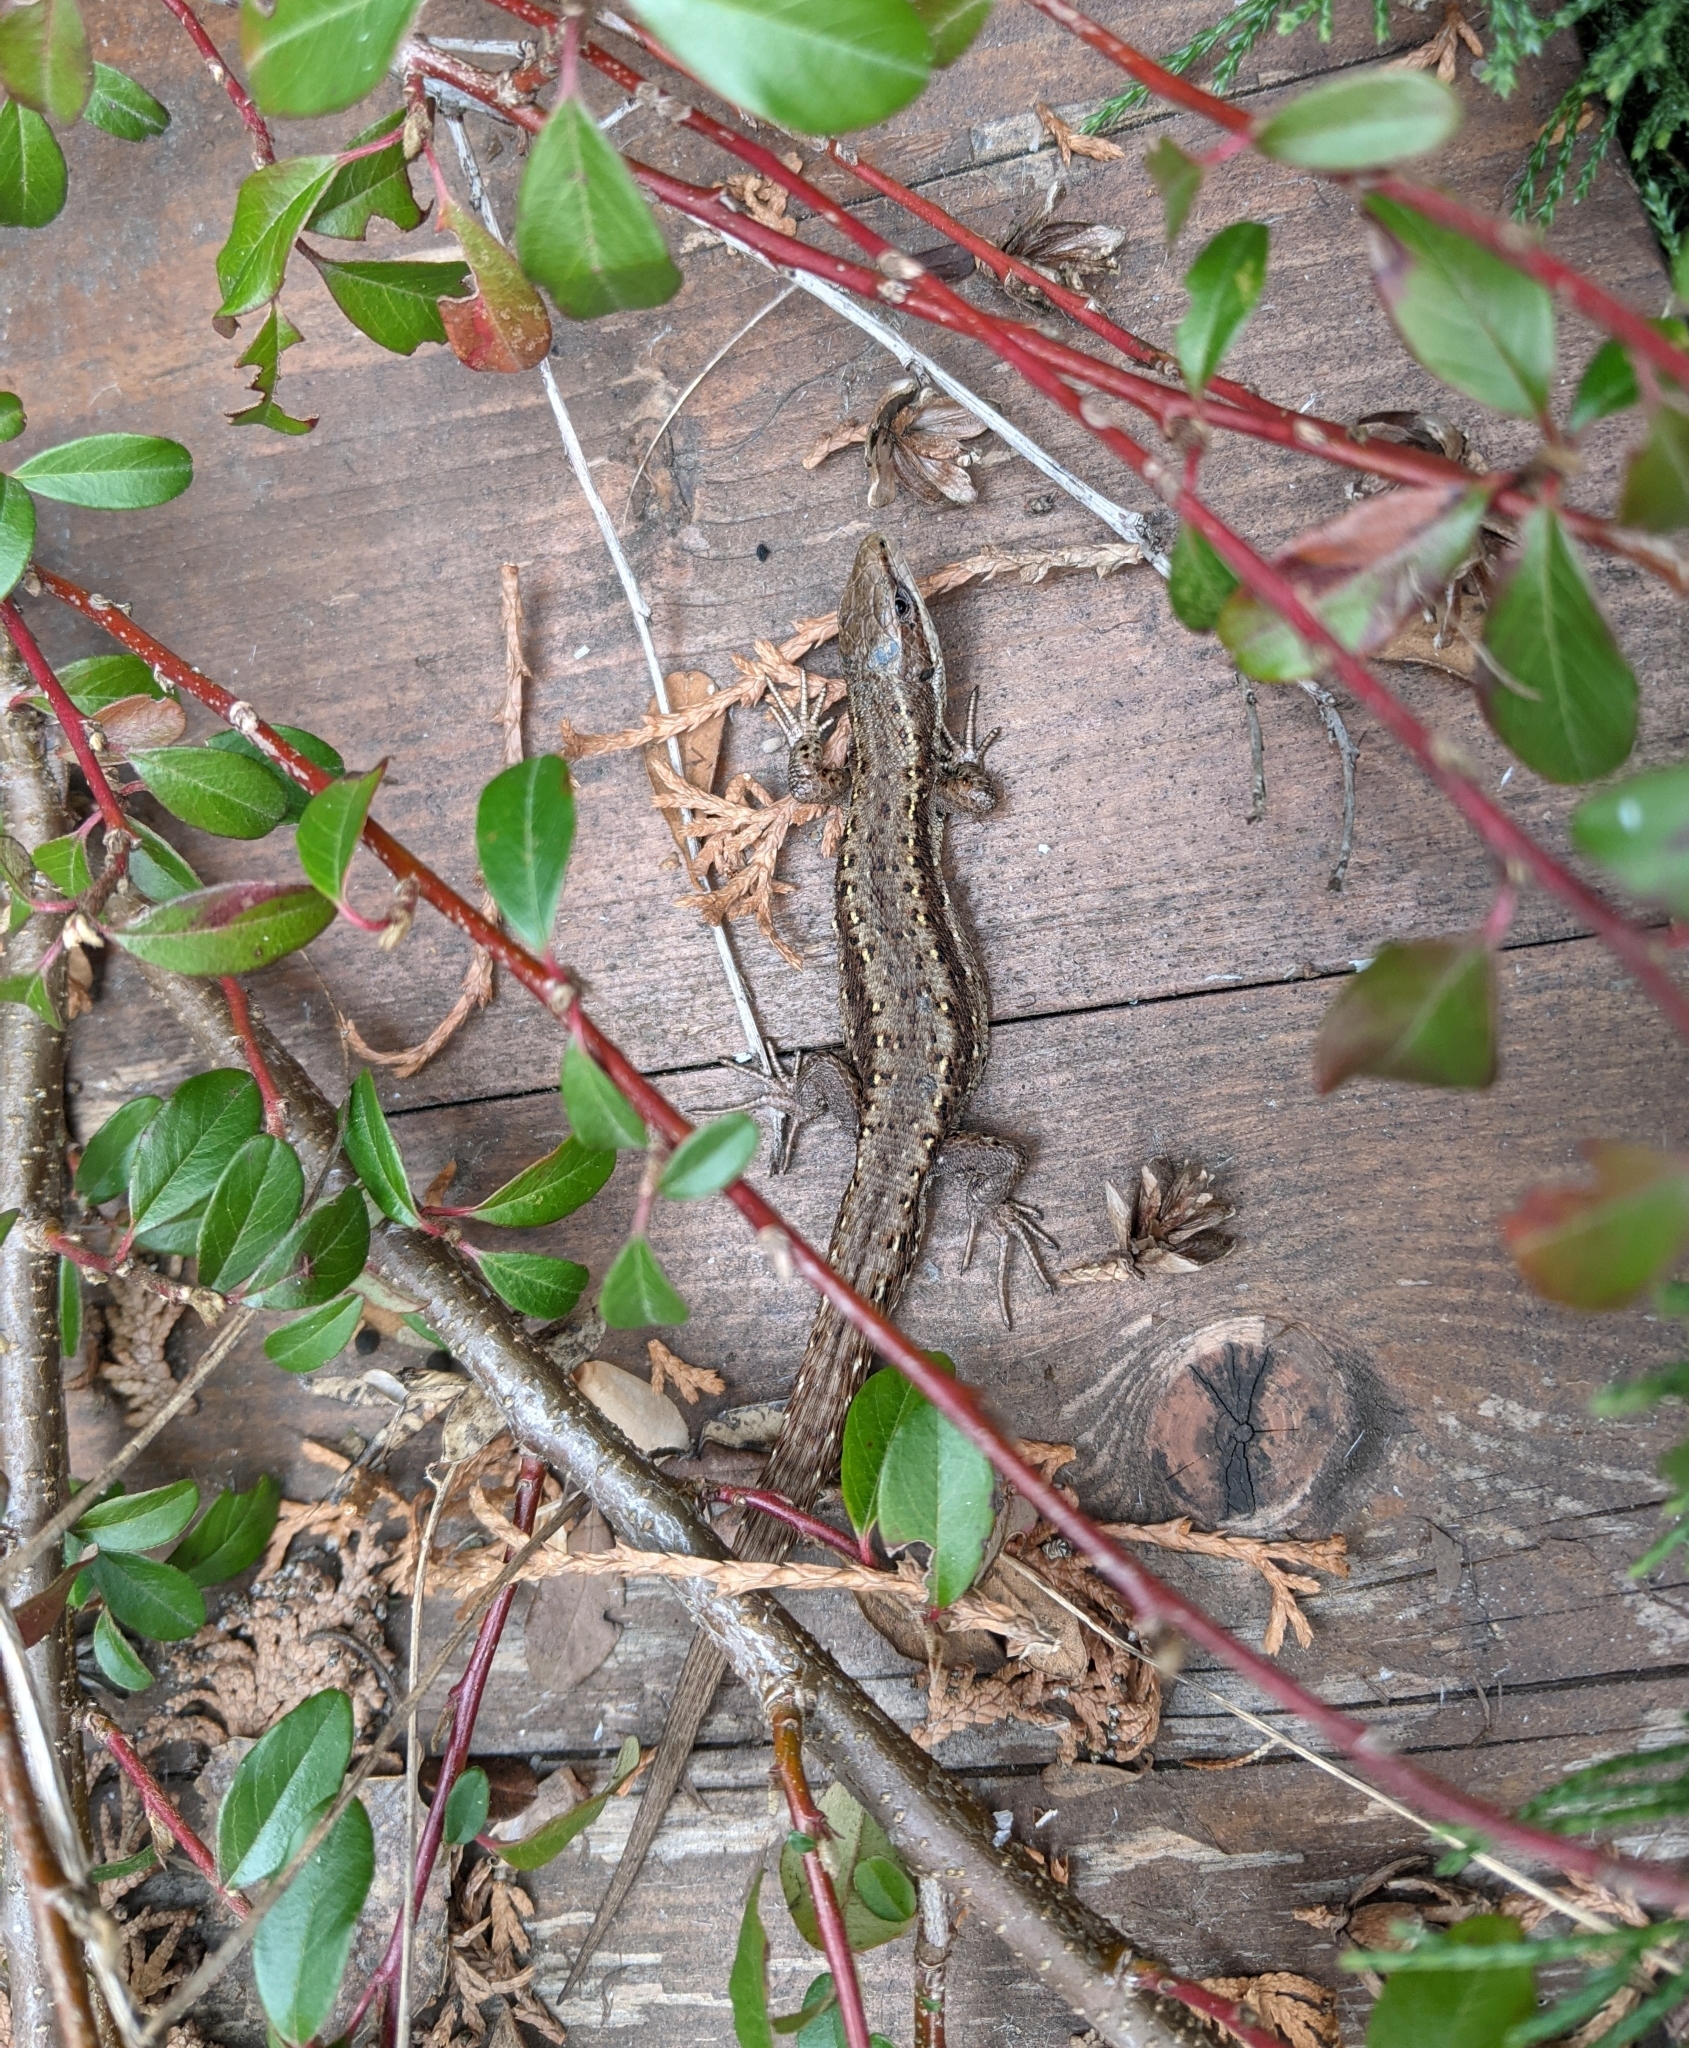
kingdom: Animalia
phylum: Chordata
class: Squamata
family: Lacertidae
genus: Zootoca
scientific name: Zootoca vivipara
